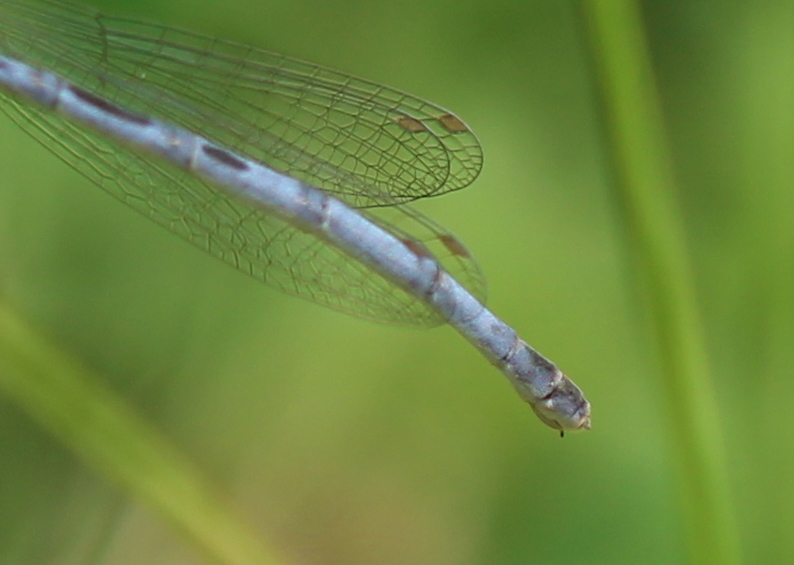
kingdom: Animalia
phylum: Arthropoda
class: Insecta
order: Odonata
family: Coenagrionidae
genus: Ischnura
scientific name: Ischnura verticalis
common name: Eastern forktail
